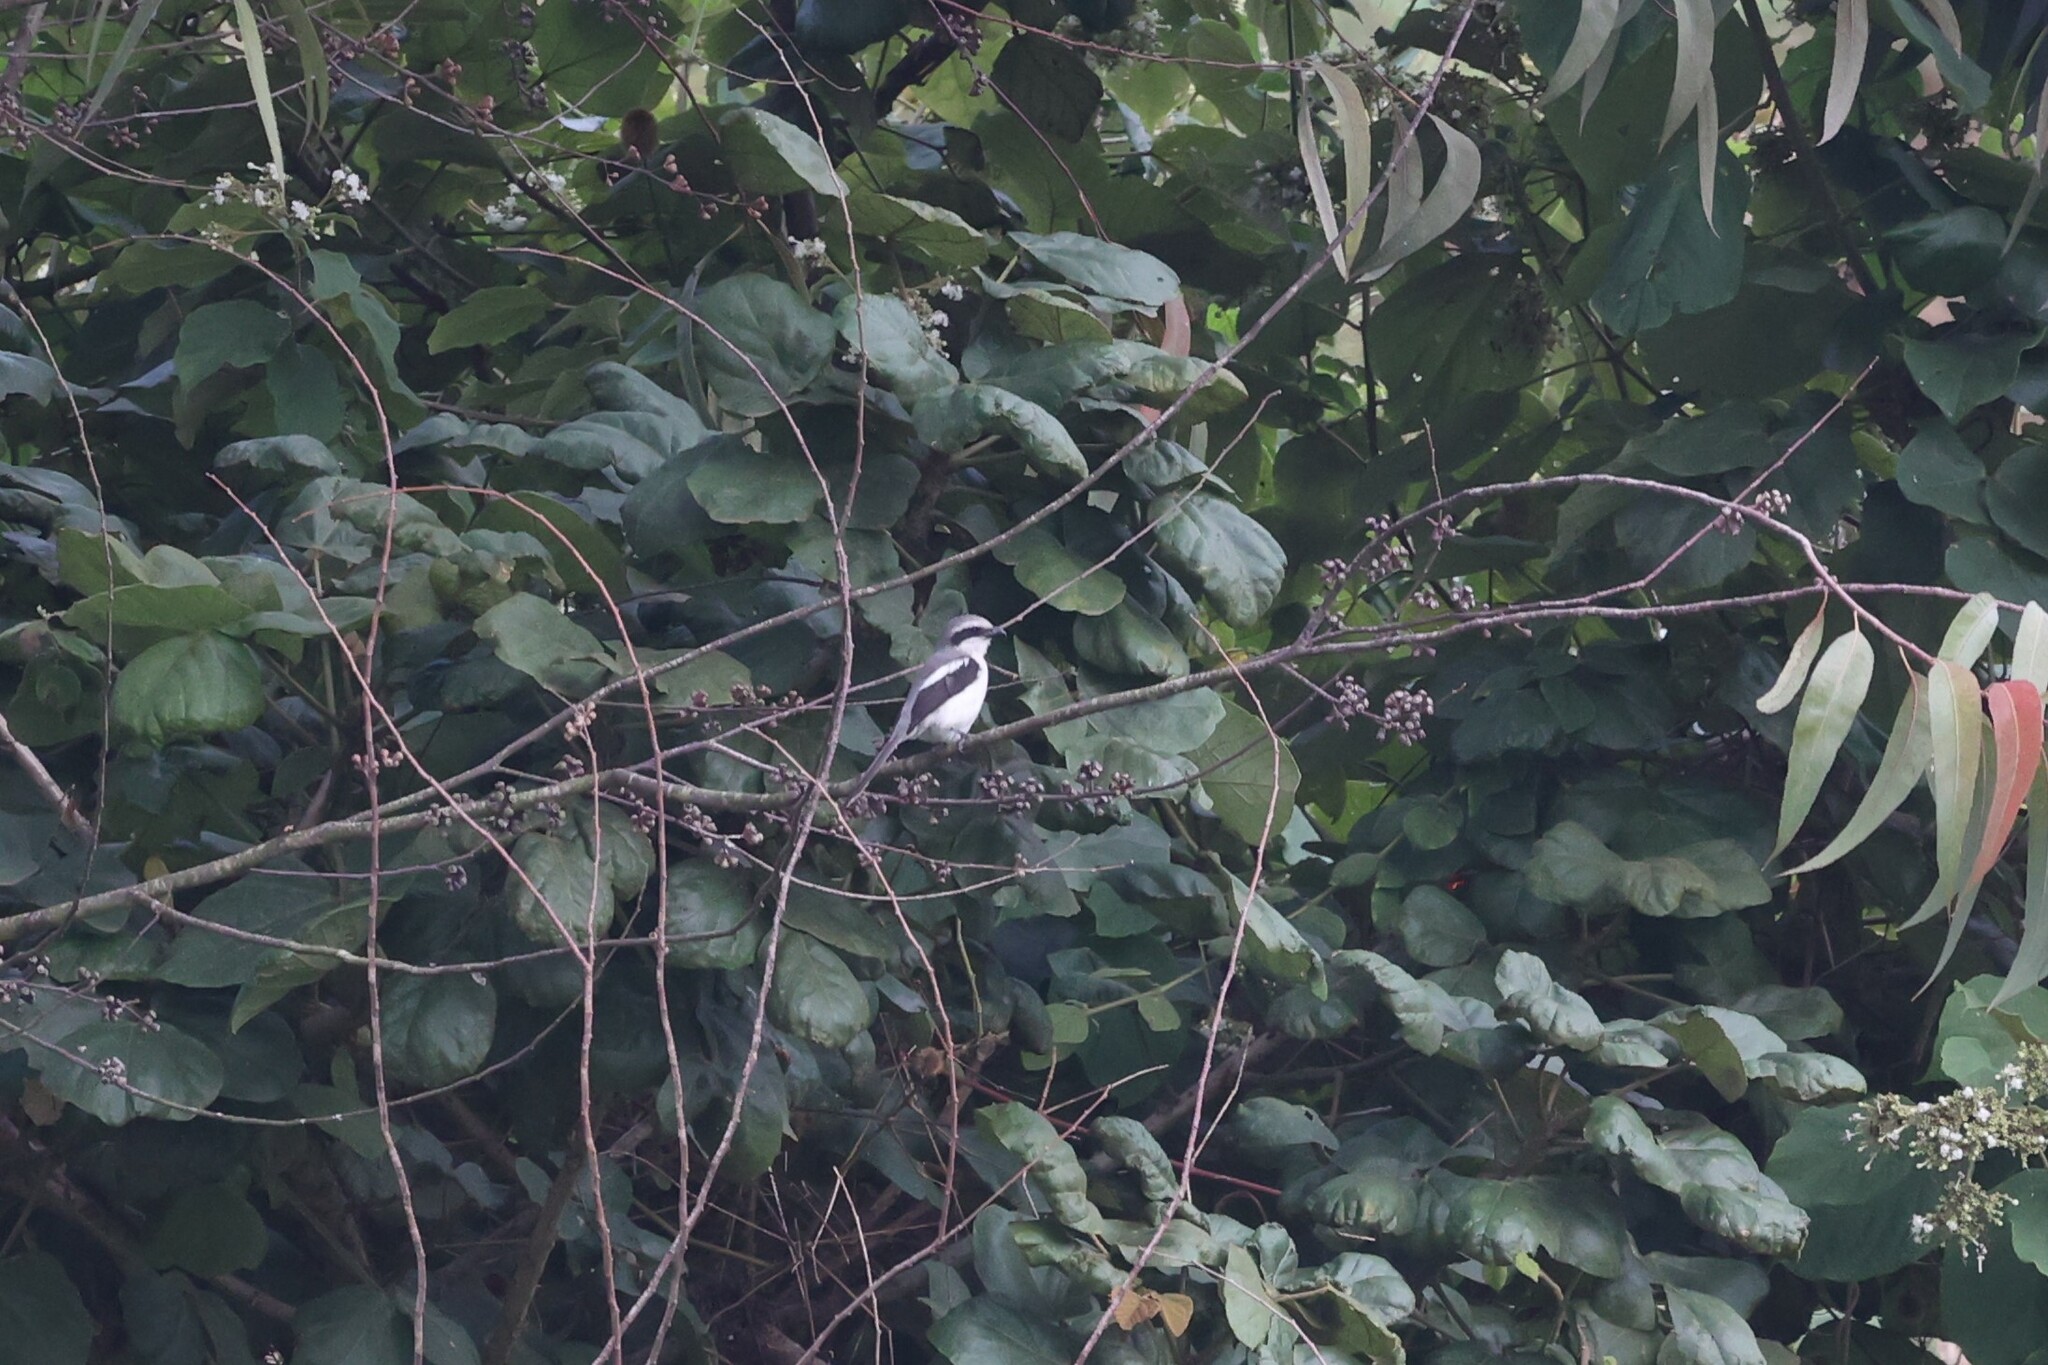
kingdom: Animalia
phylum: Chordata
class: Aves
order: Passeriformes
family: Laniidae
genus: Lanius
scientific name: Lanius mackinnoni
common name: Mackinnon's shrike
